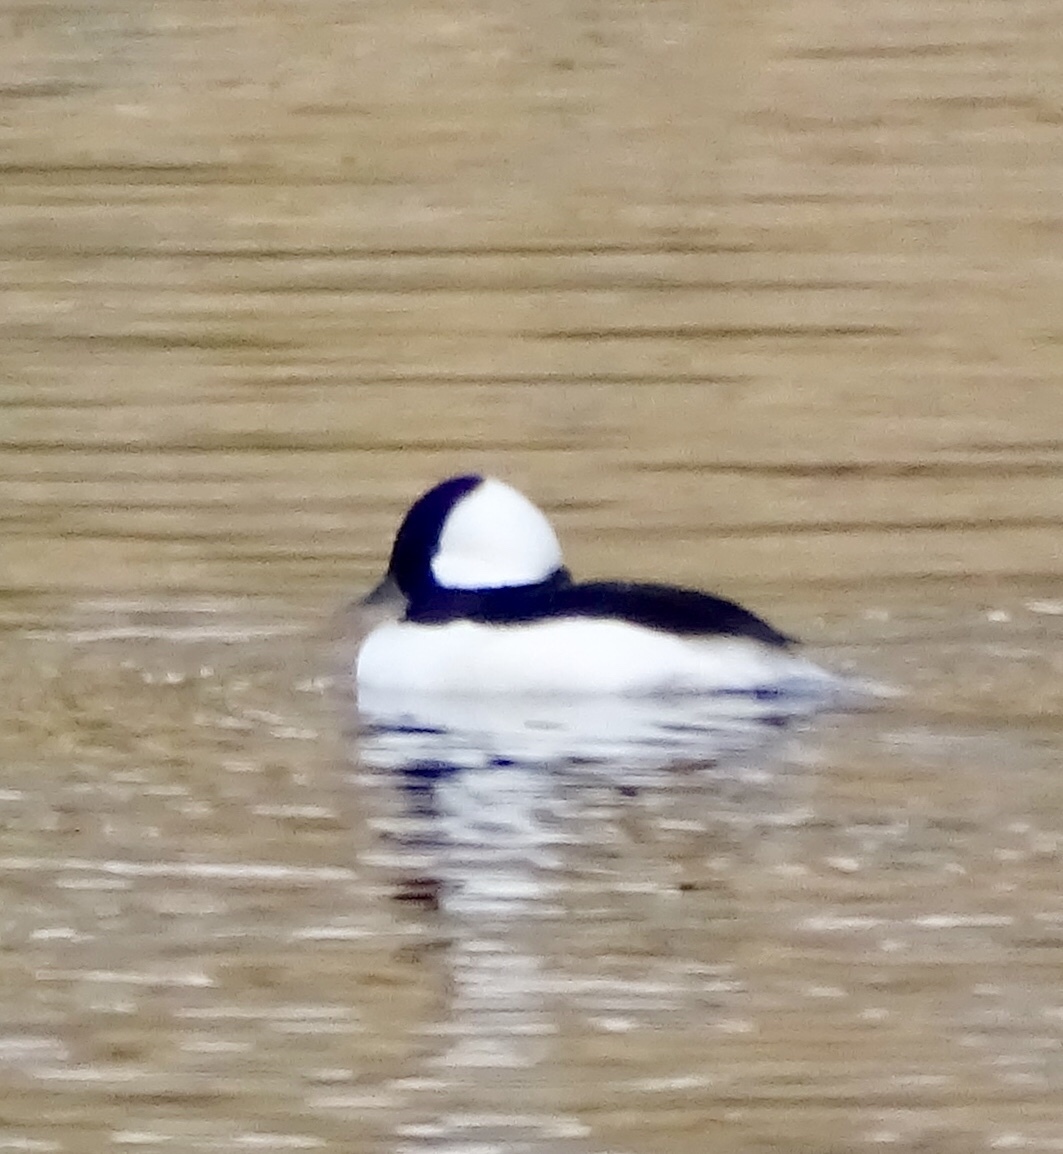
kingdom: Animalia
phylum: Chordata
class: Aves
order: Anseriformes
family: Anatidae
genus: Bucephala
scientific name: Bucephala albeola
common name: Bufflehead
